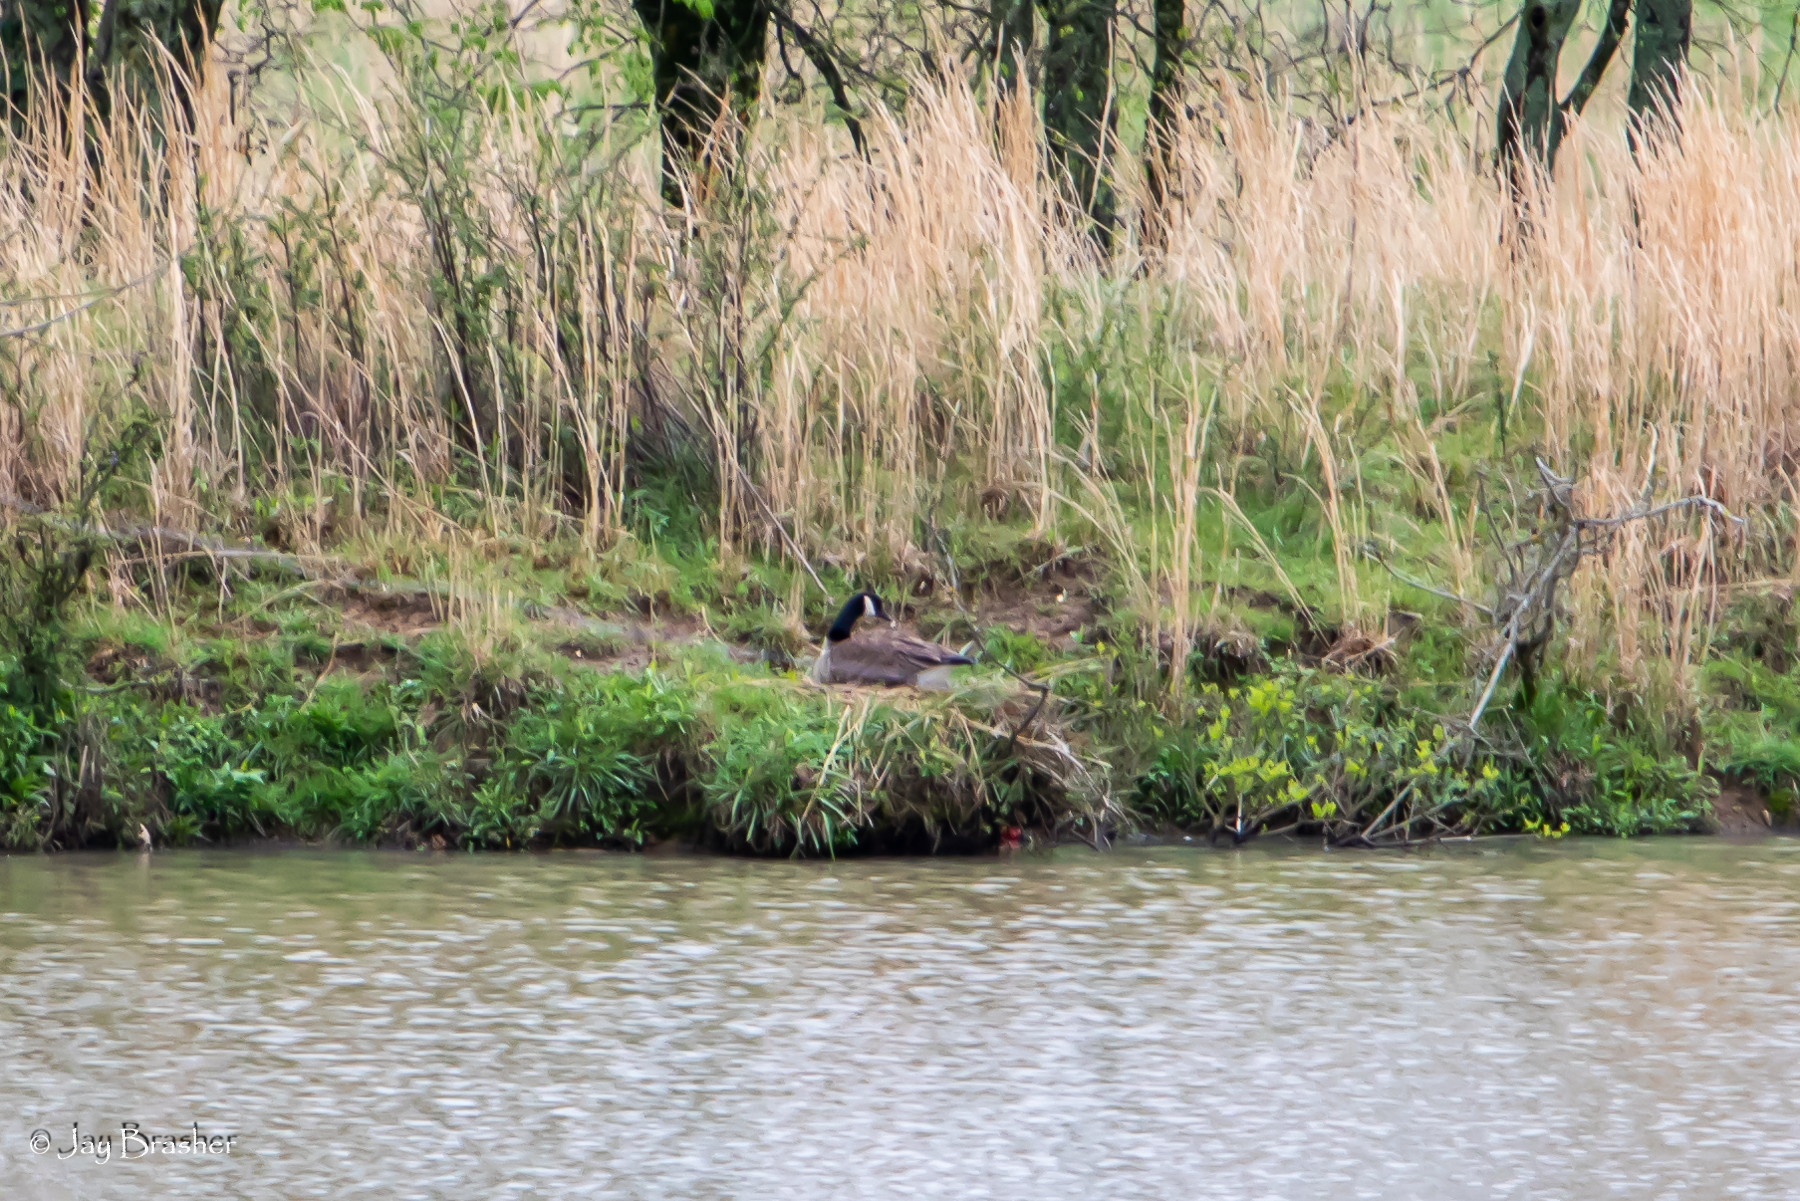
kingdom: Animalia
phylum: Chordata
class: Aves
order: Anseriformes
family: Anatidae
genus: Branta
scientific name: Branta canadensis
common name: Canada goose
